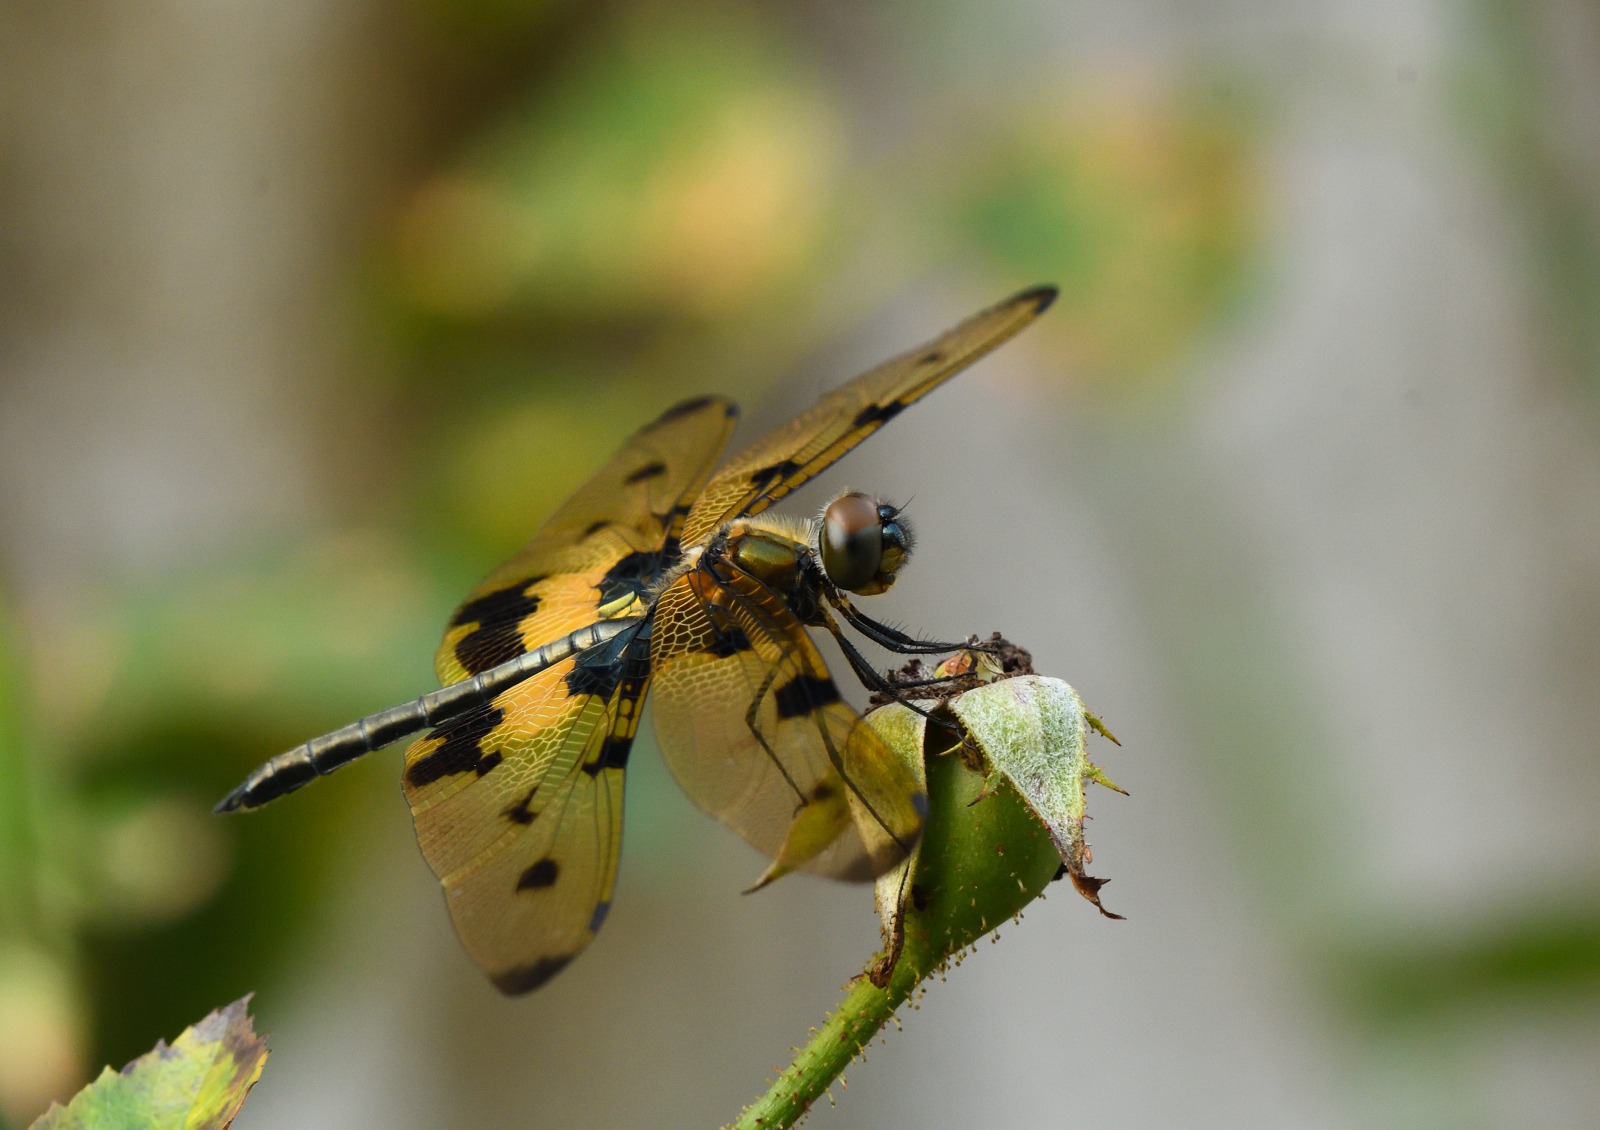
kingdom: Animalia
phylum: Arthropoda
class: Insecta
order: Odonata
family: Libellulidae
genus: Rhyothemis
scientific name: Rhyothemis variegata
